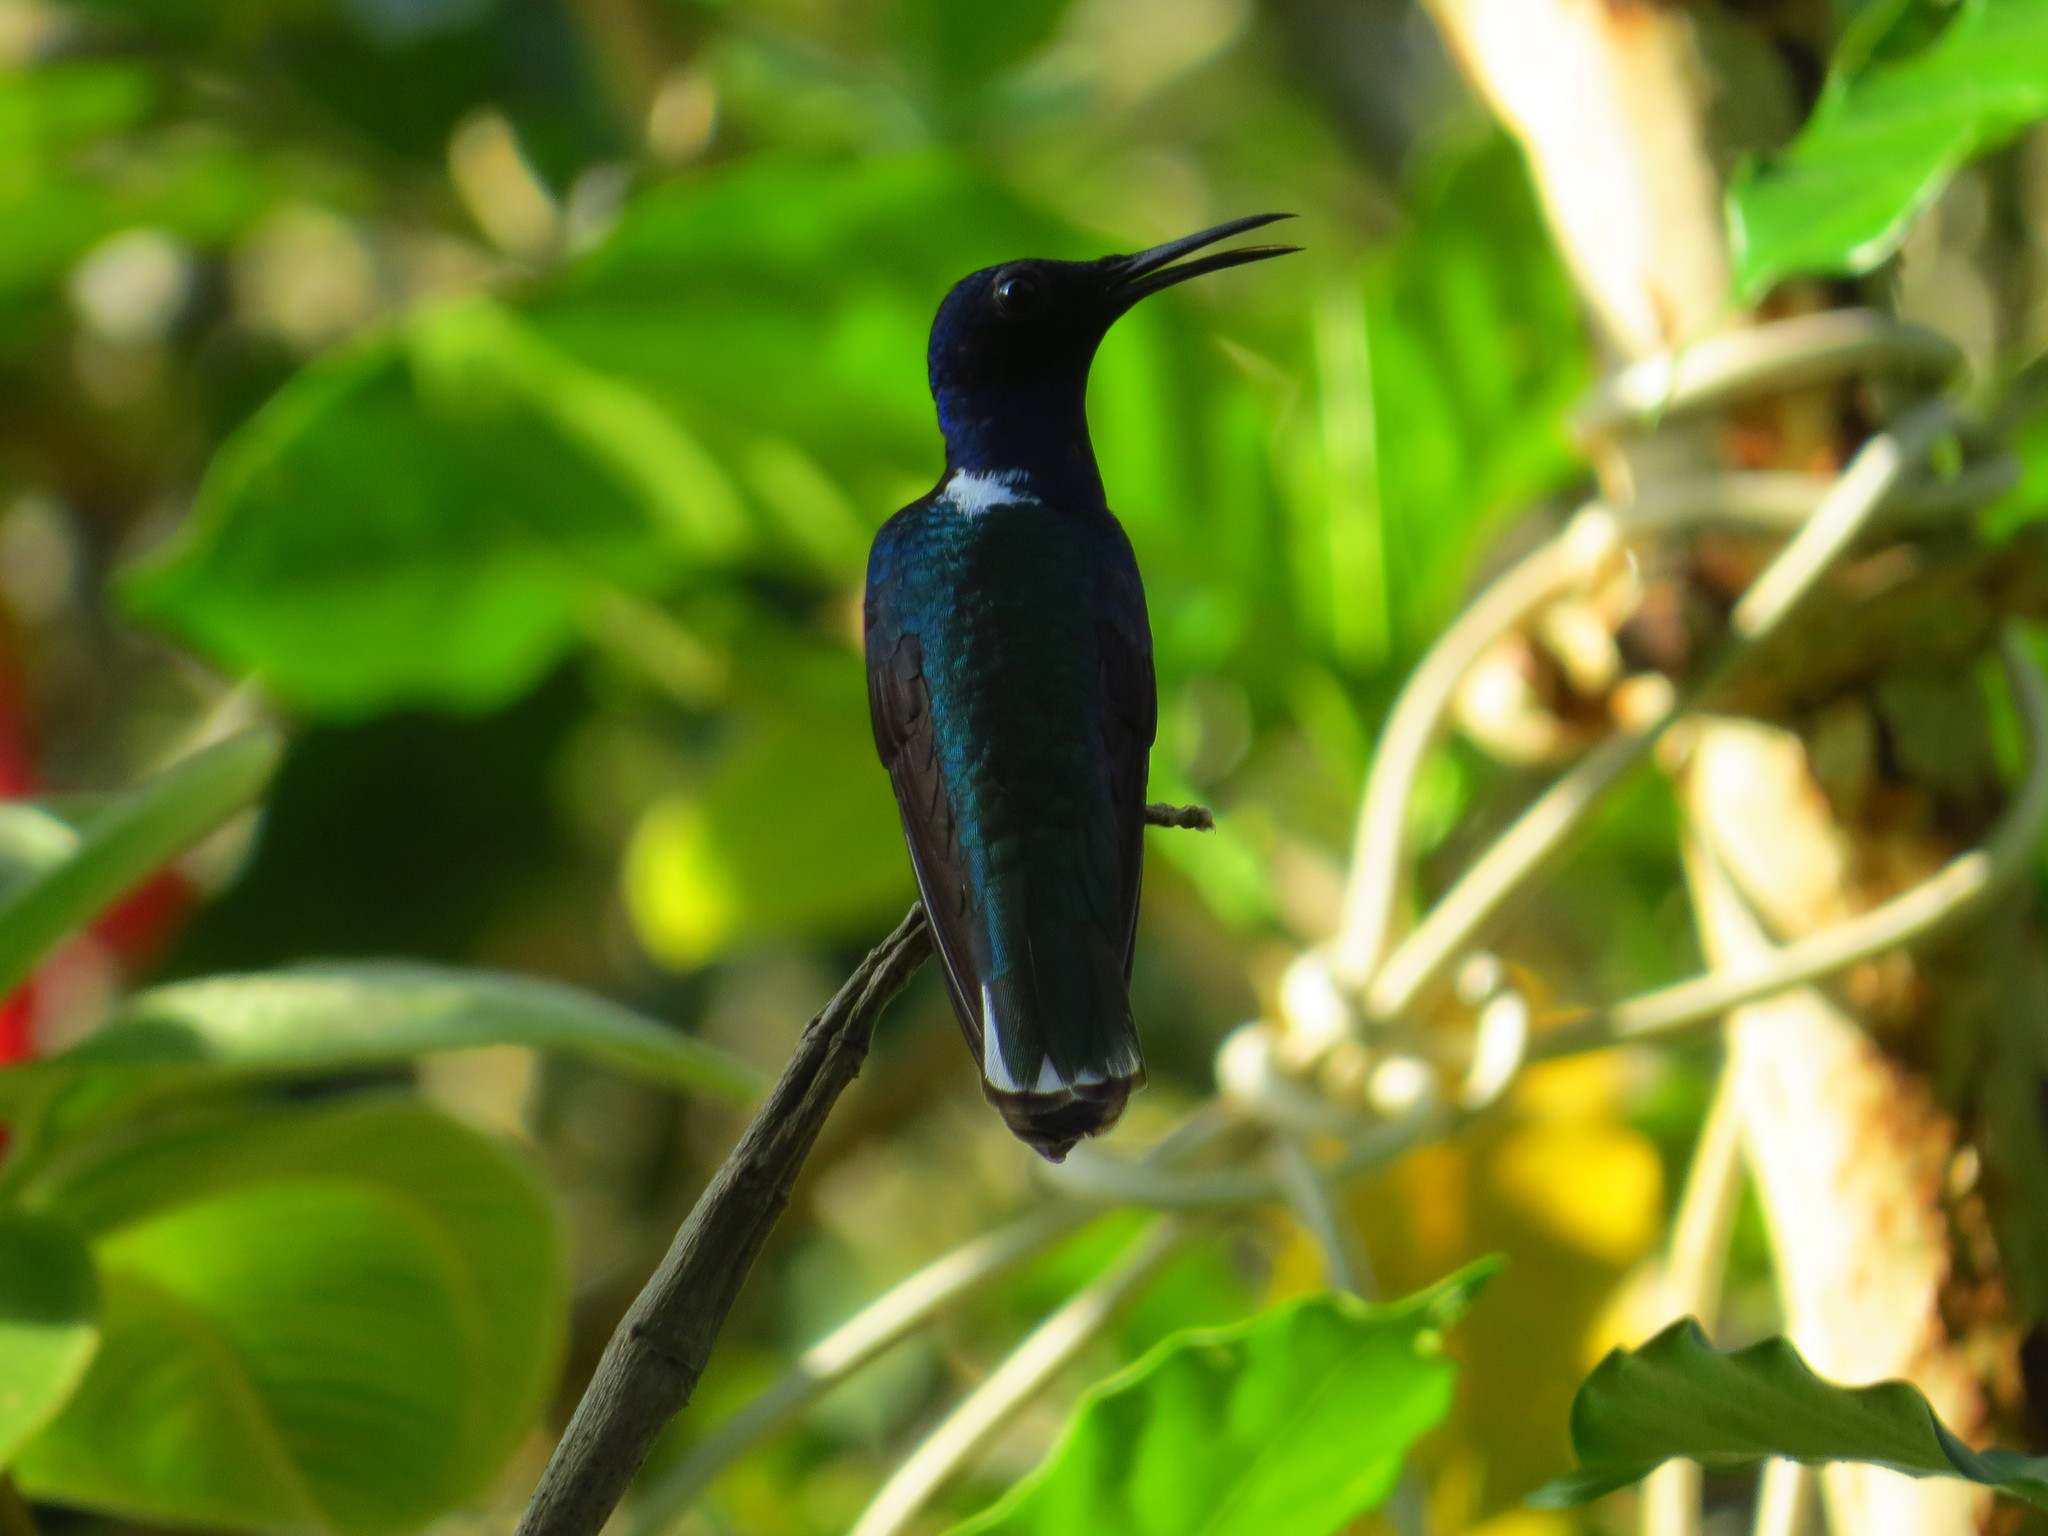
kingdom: Animalia
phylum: Chordata
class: Aves
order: Apodiformes
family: Trochilidae
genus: Florisuga
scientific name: Florisuga mellivora
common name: White-necked jacobin
